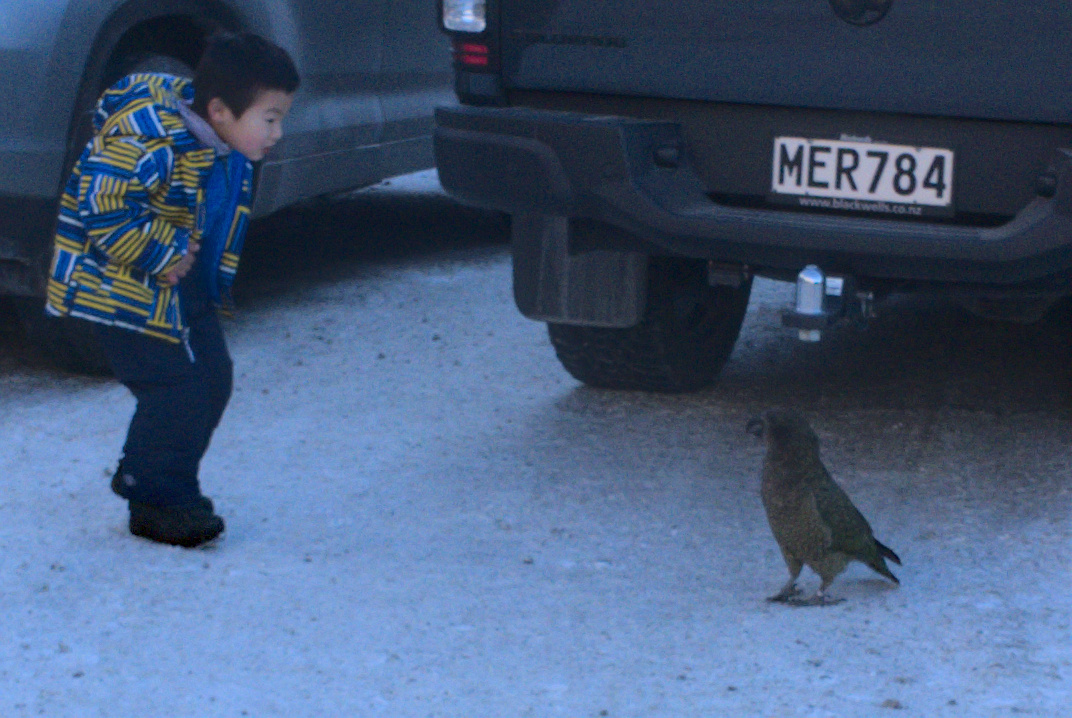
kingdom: Animalia
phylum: Chordata
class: Aves
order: Psittaciformes
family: Psittacidae
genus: Nestor
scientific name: Nestor notabilis
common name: Kea
